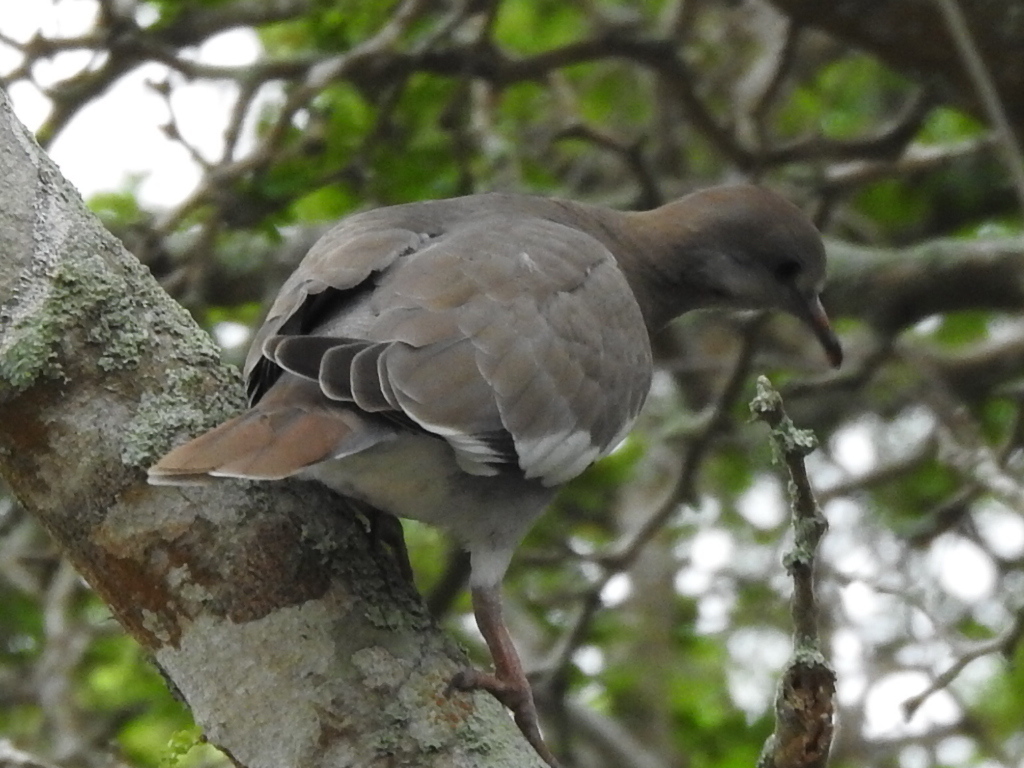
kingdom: Animalia
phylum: Chordata
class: Aves
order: Columbiformes
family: Columbidae
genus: Zenaida
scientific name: Zenaida asiatica
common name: White-winged dove
